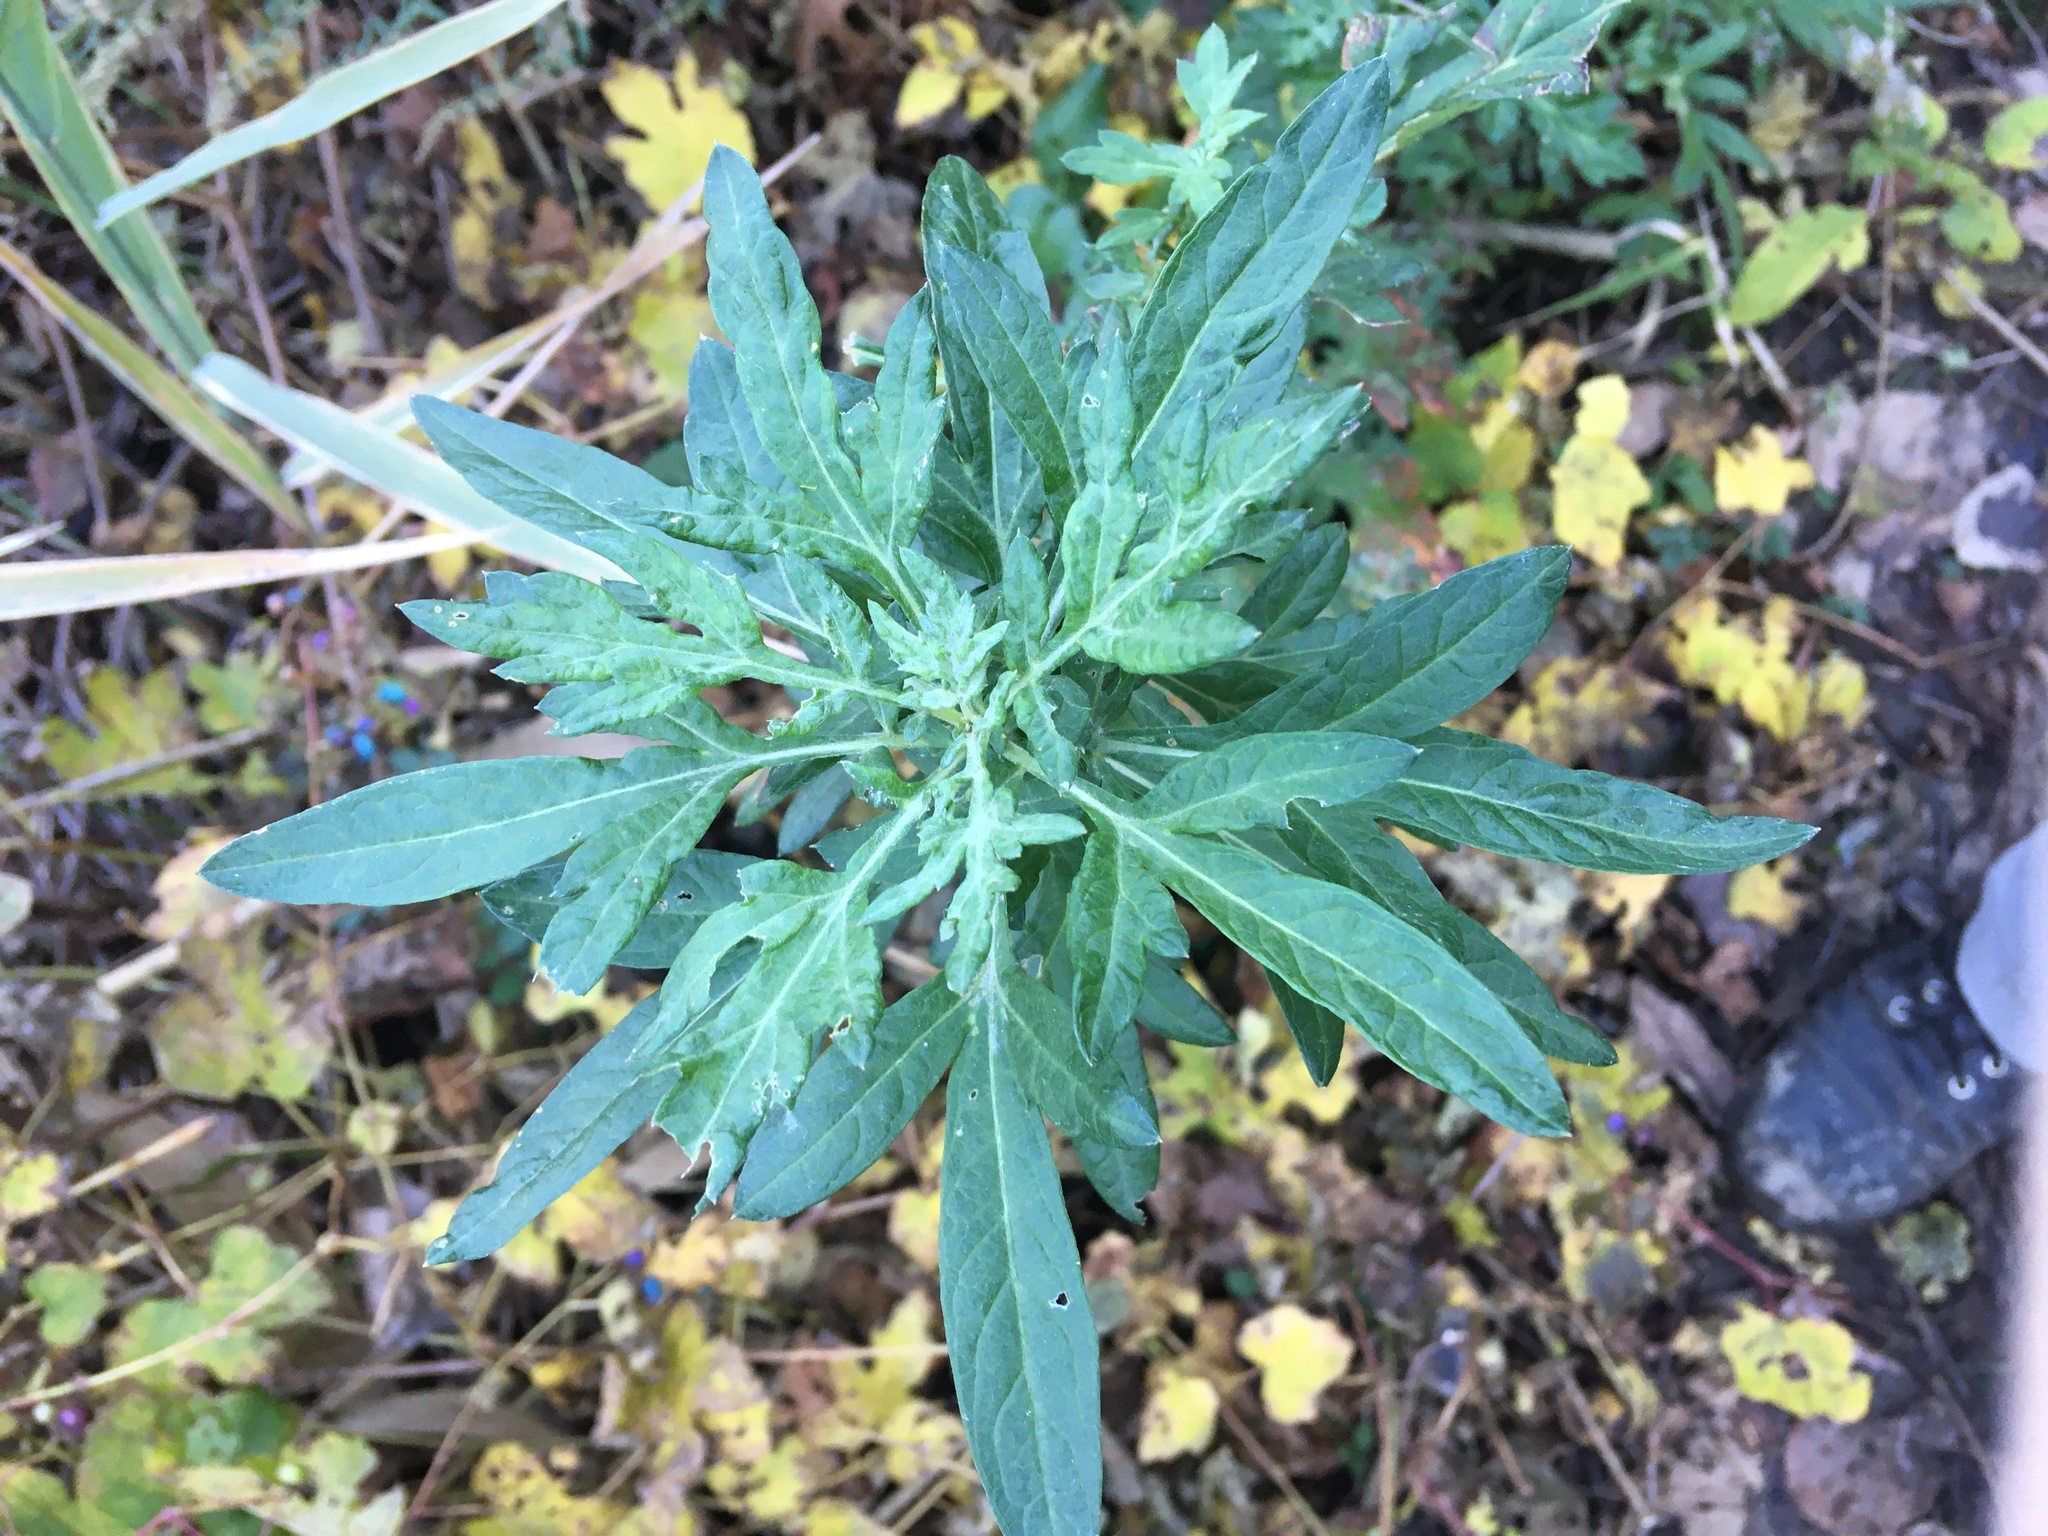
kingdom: Plantae
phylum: Tracheophyta
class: Magnoliopsida
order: Asterales
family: Asteraceae
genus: Artemisia
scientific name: Artemisia vulgaris
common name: Mugwort
